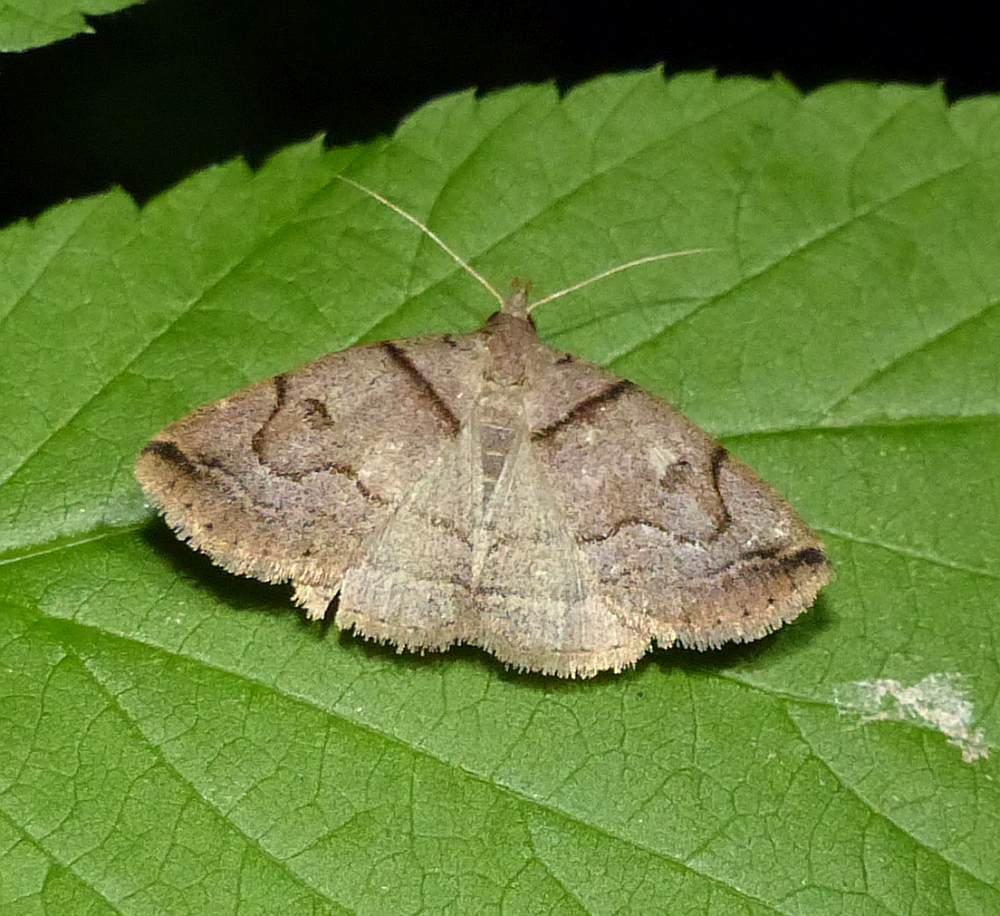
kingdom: Animalia
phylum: Arthropoda
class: Insecta
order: Lepidoptera
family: Erebidae
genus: Zanclognatha
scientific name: Zanclognatha laevigata
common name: Variable fan-foot
